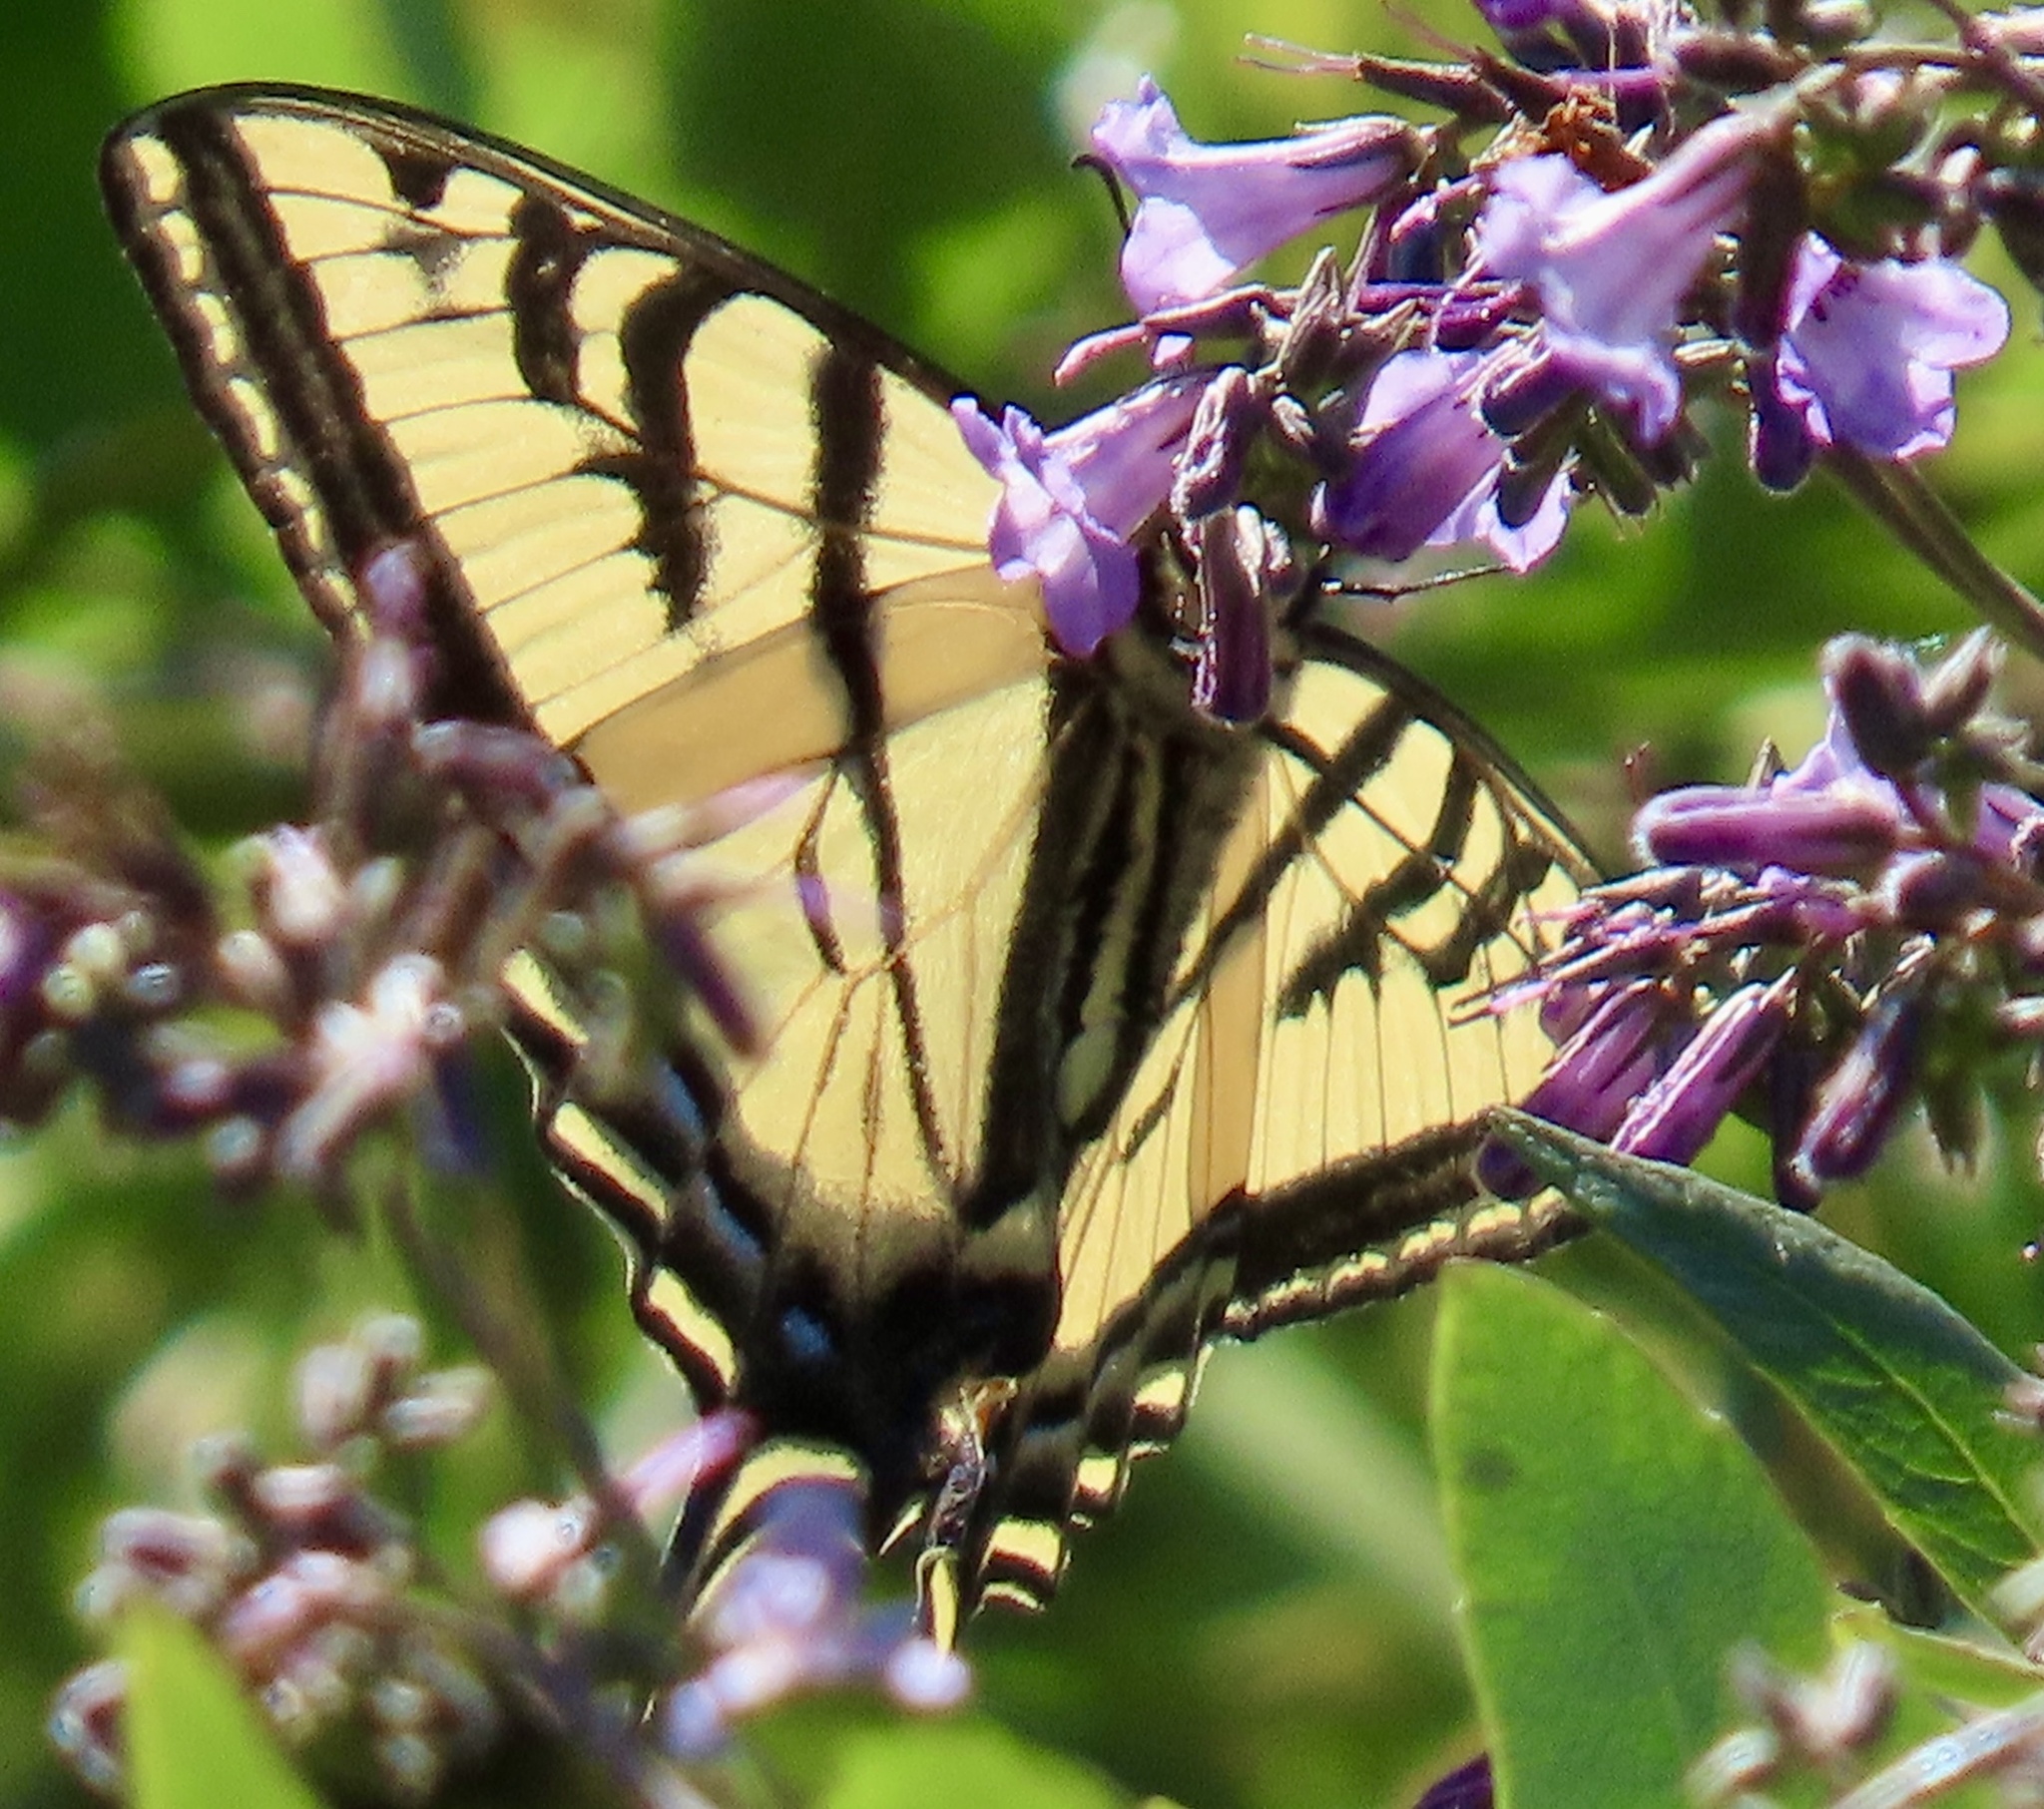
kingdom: Animalia
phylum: Arthropoda
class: Insecta
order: Lepidoptera
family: Papilionidae
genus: Papilio
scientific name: Papilio rutulus
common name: Western tiger swallowtail
